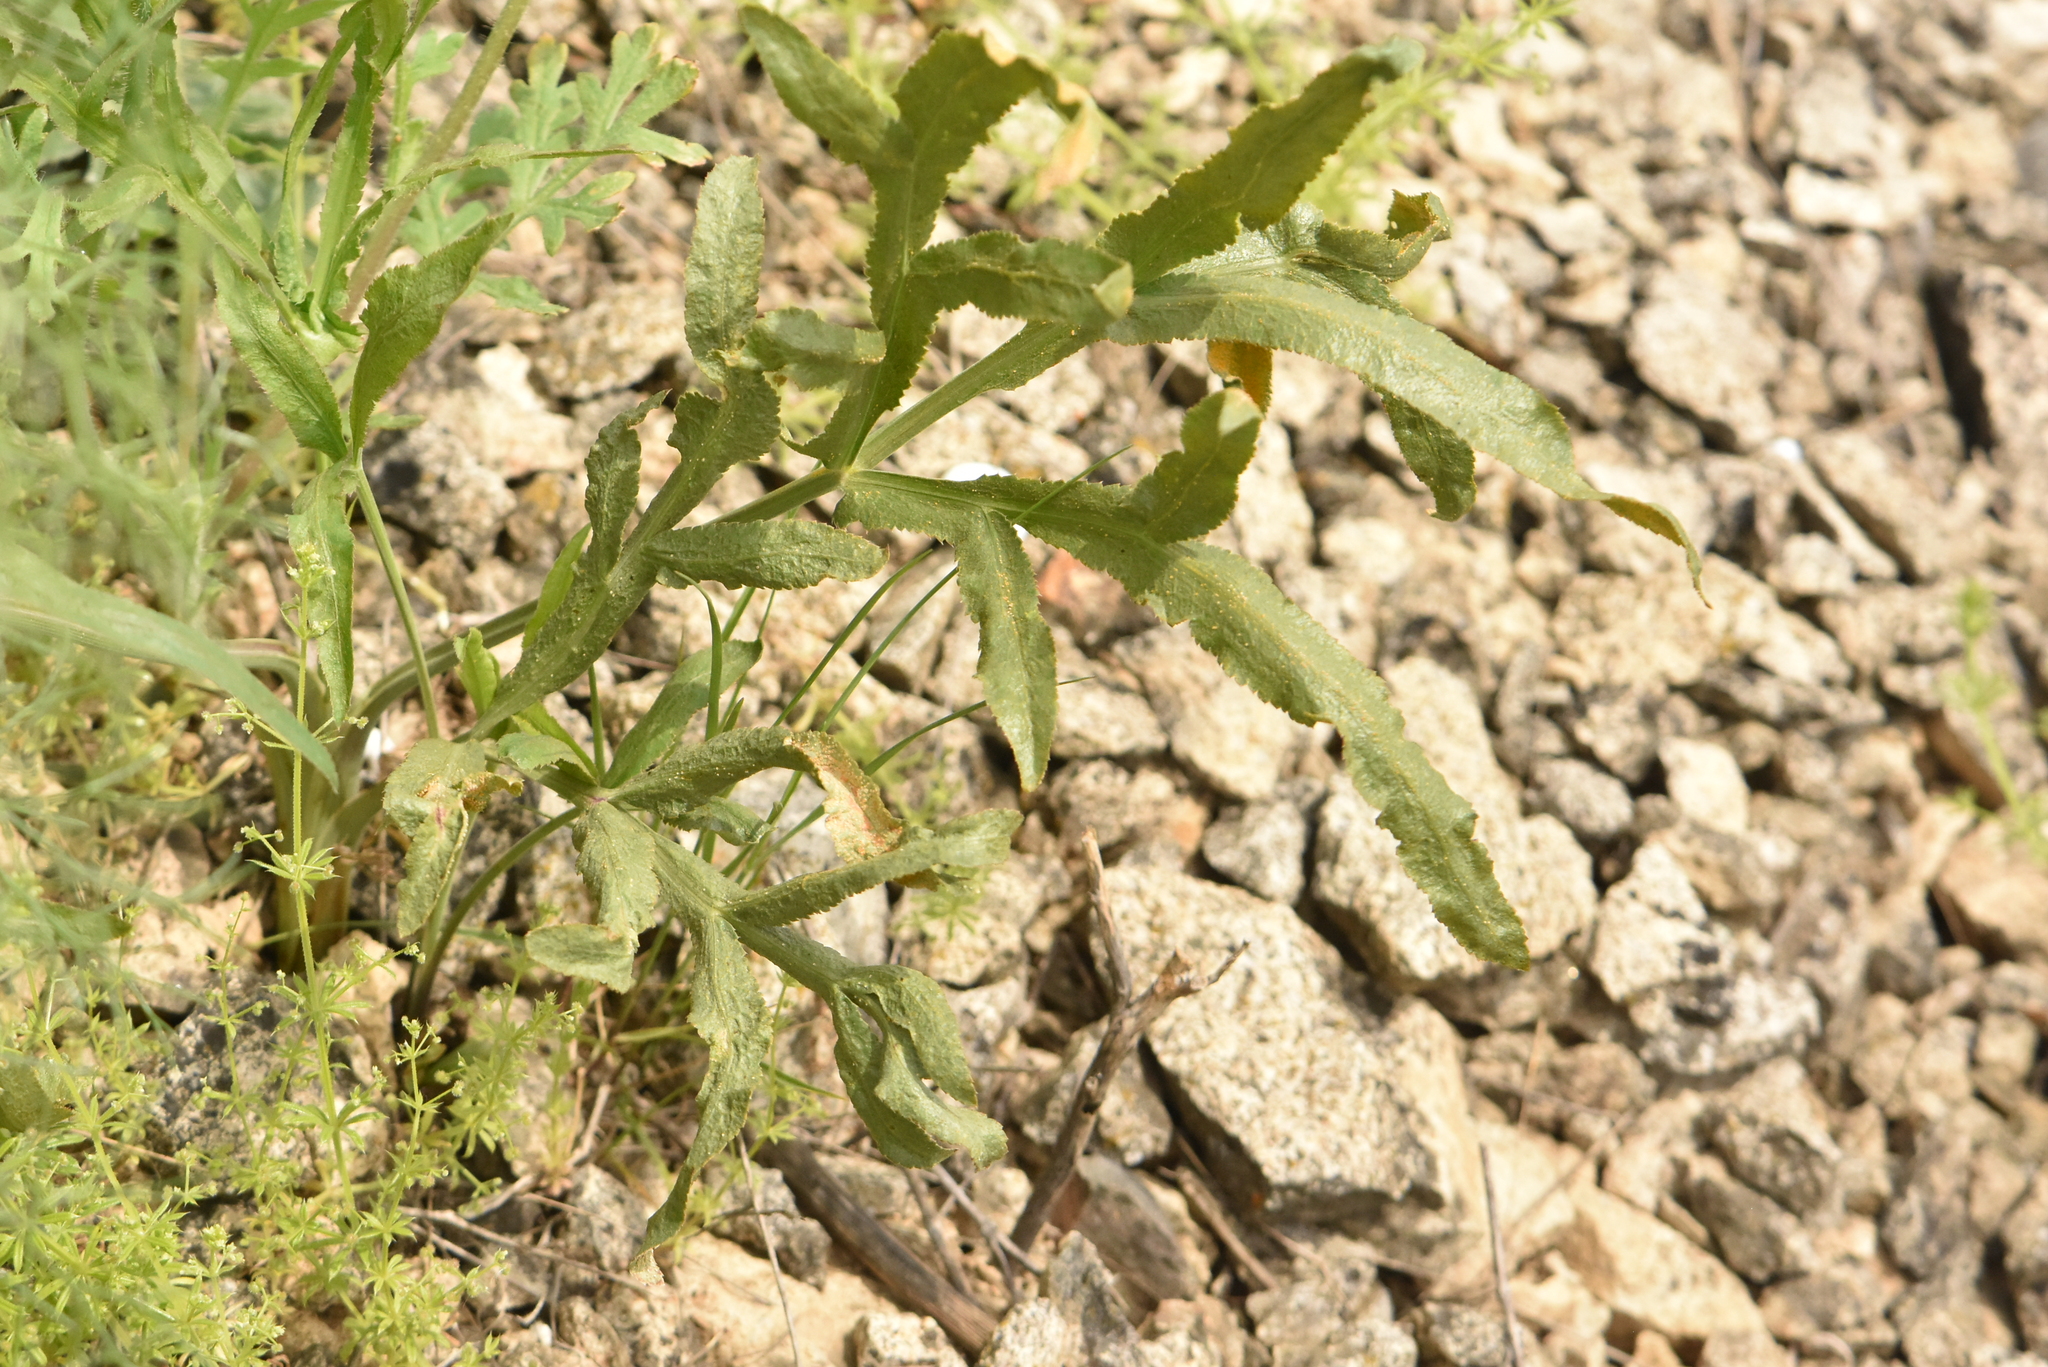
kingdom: Fungi
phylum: Basidiomycota
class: Pucciniomycetes
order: Pucciniales
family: Pucciniaceae
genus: Puccinia
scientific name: Puccinia sii-falcariae
